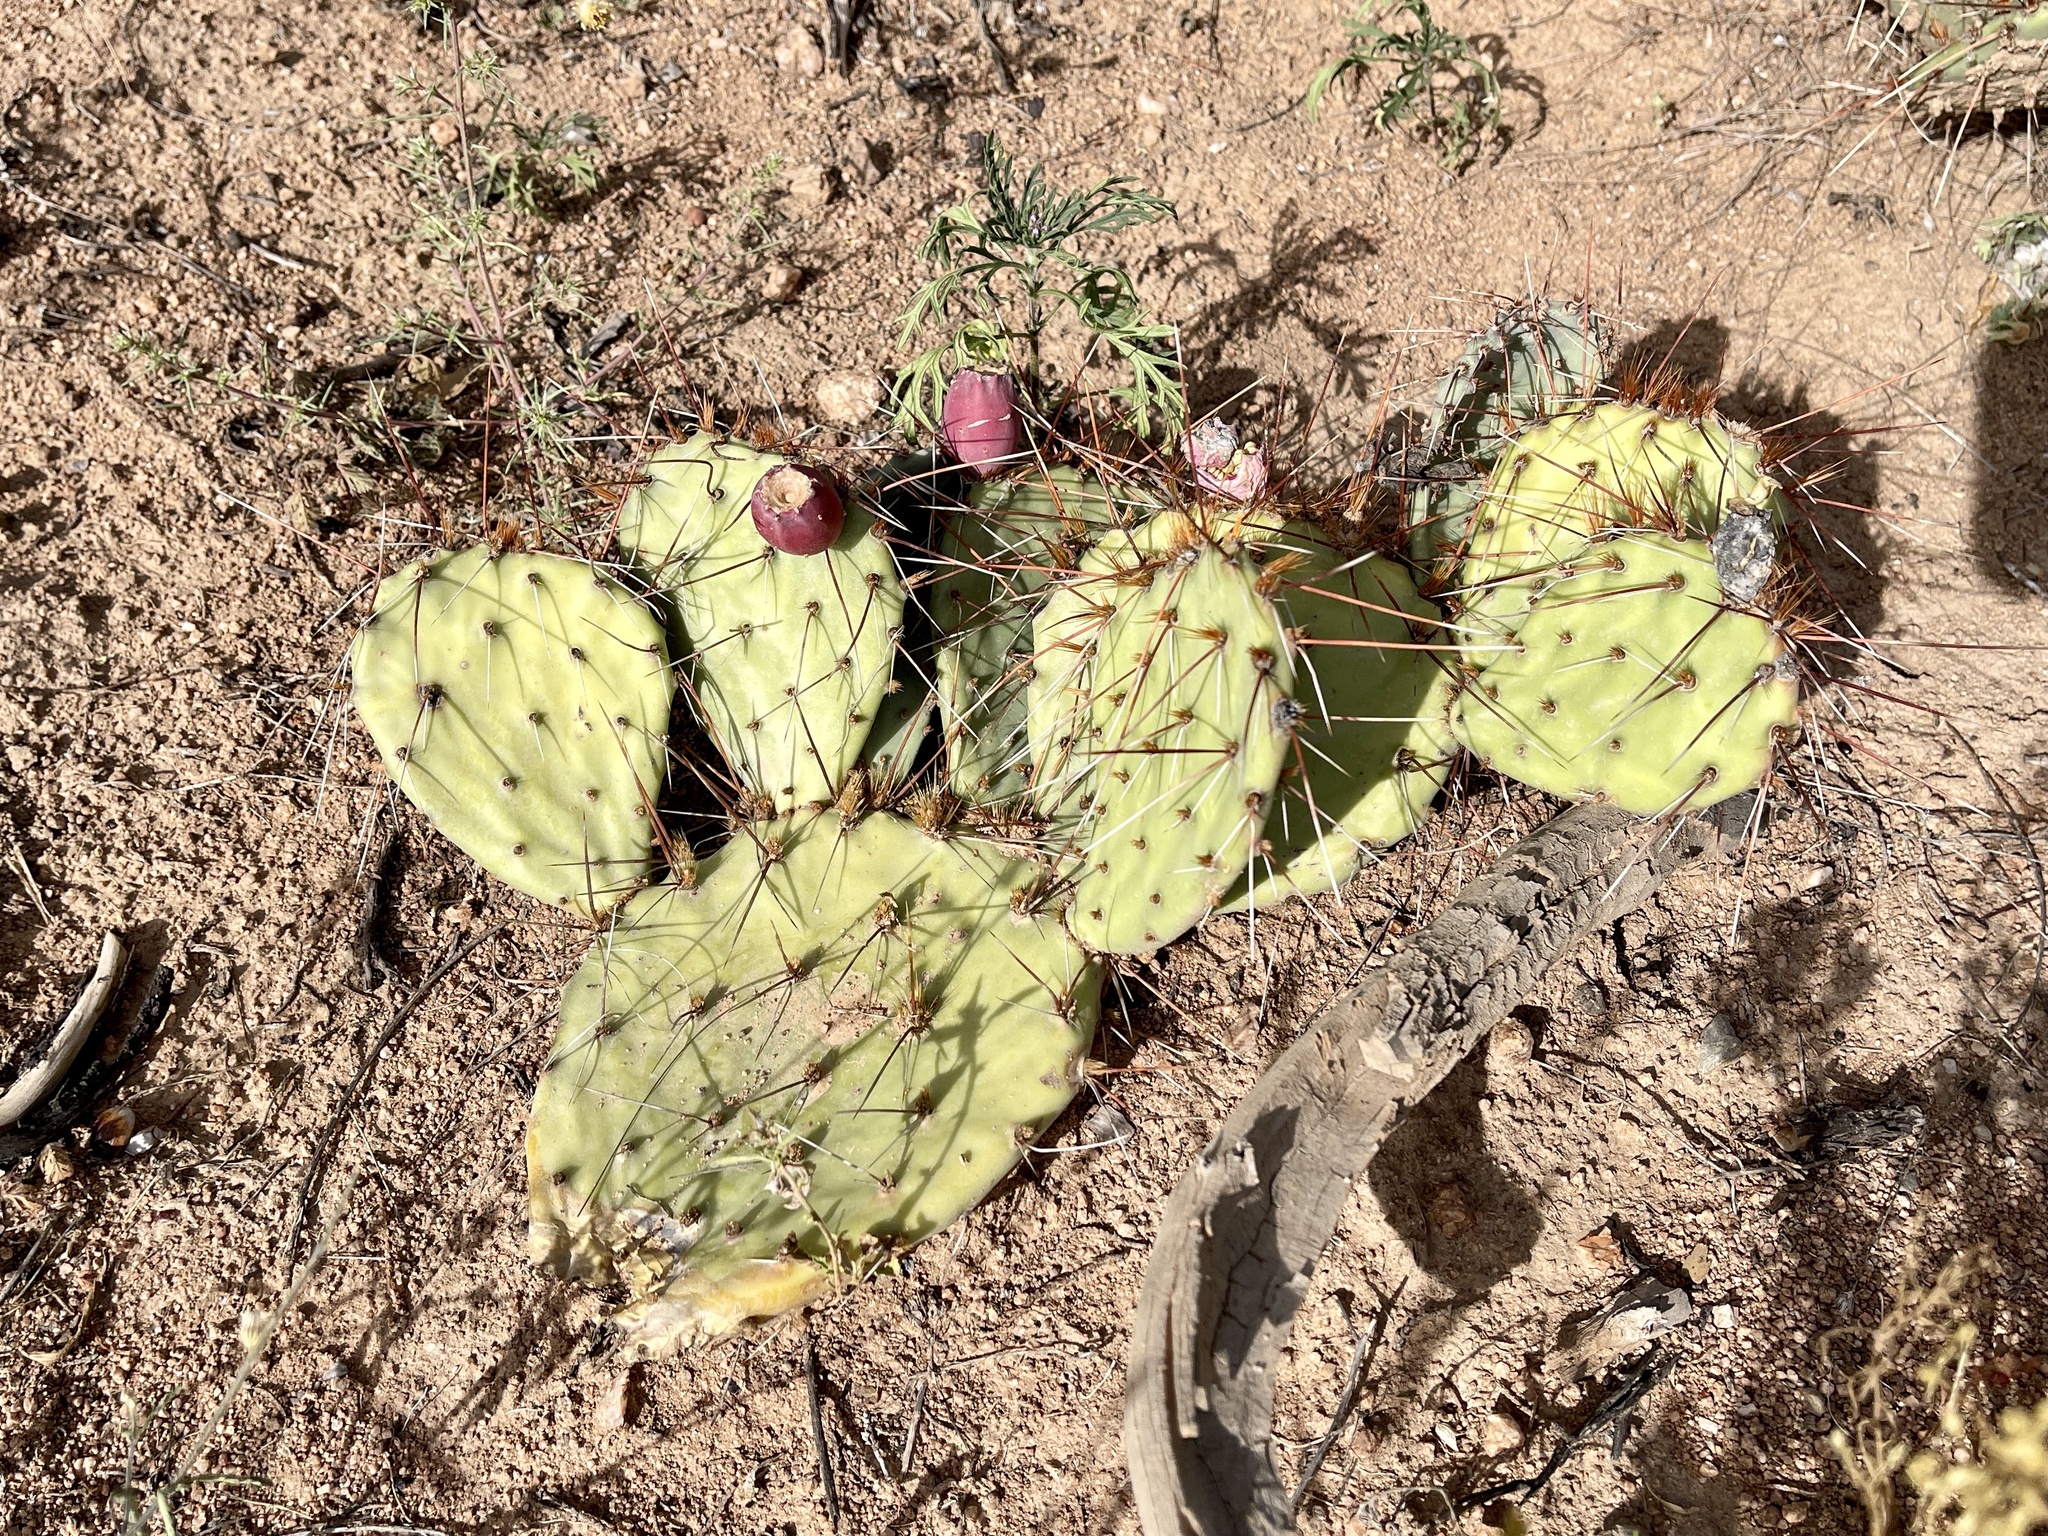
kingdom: Plantae
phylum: Tracheophyta
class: Magnoliopsida
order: Caryophyllales
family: Cactaceae
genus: Opuntia
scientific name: Opuntia phaeacantha
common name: New mexico prickly-pear
